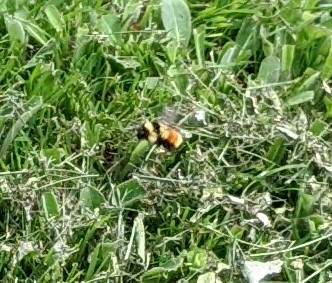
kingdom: Animalia
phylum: Arthropoda
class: Insecta
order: Hymenoptera
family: Apidae
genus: Bombus
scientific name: Bombus ternarius
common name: Tri-colored bumble bee
